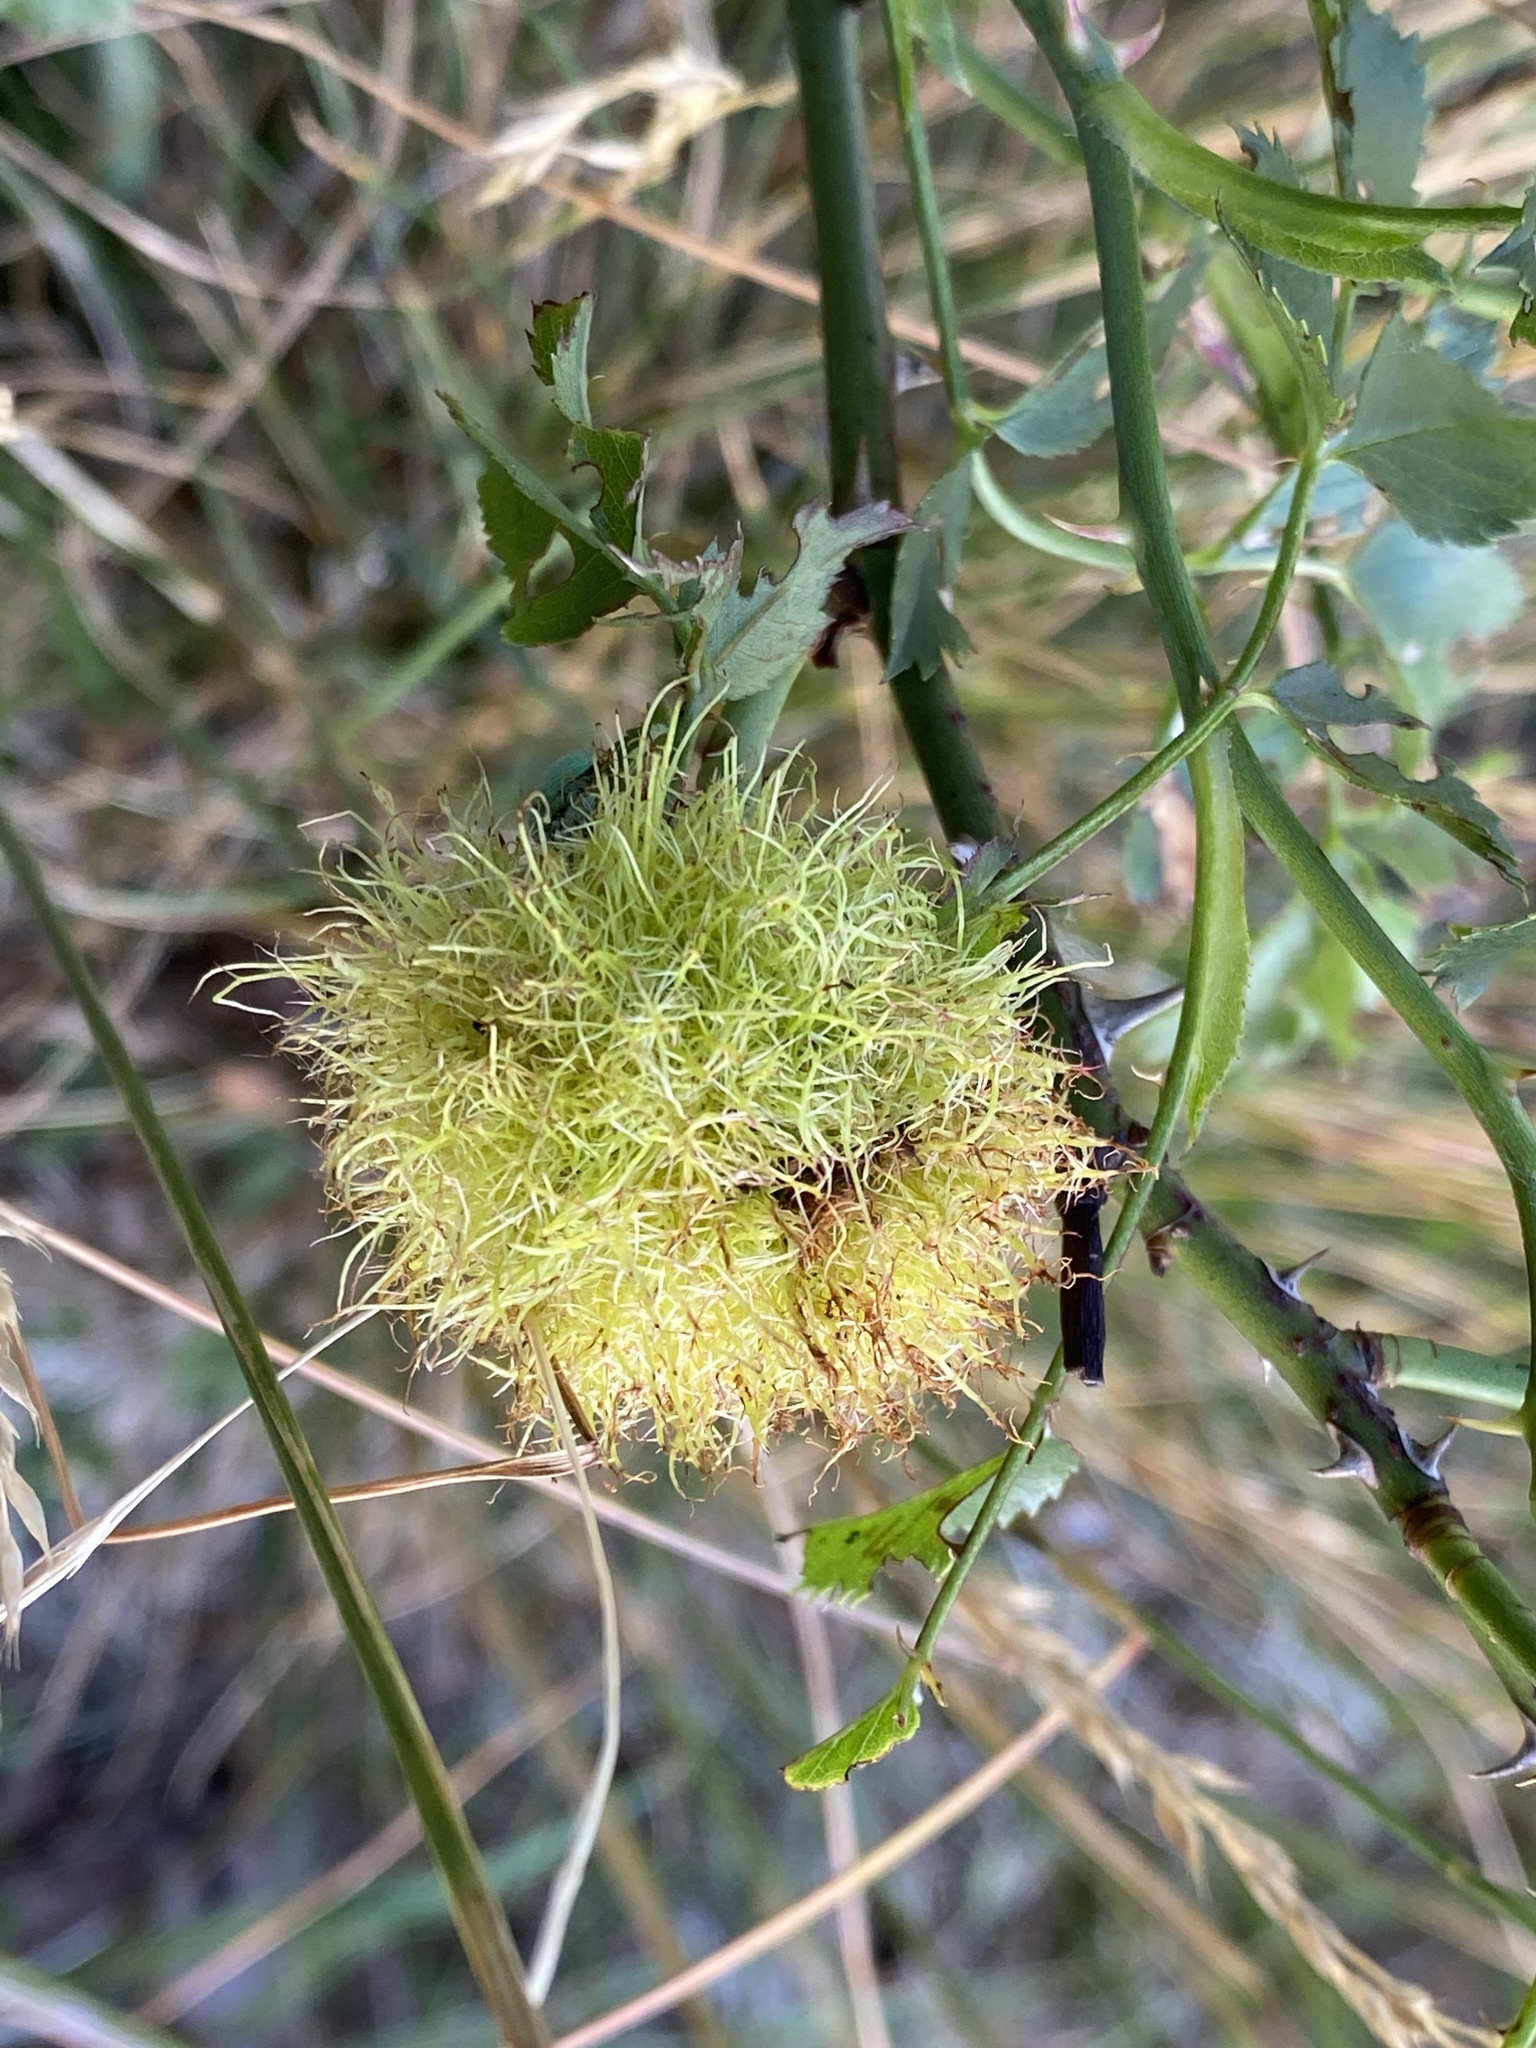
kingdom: Animalia
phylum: Arthropoda
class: Insecta
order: Hymenoptera
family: Cynipidae
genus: Diplolepis
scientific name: Diplolepis rosae
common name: Bedeguar gall
